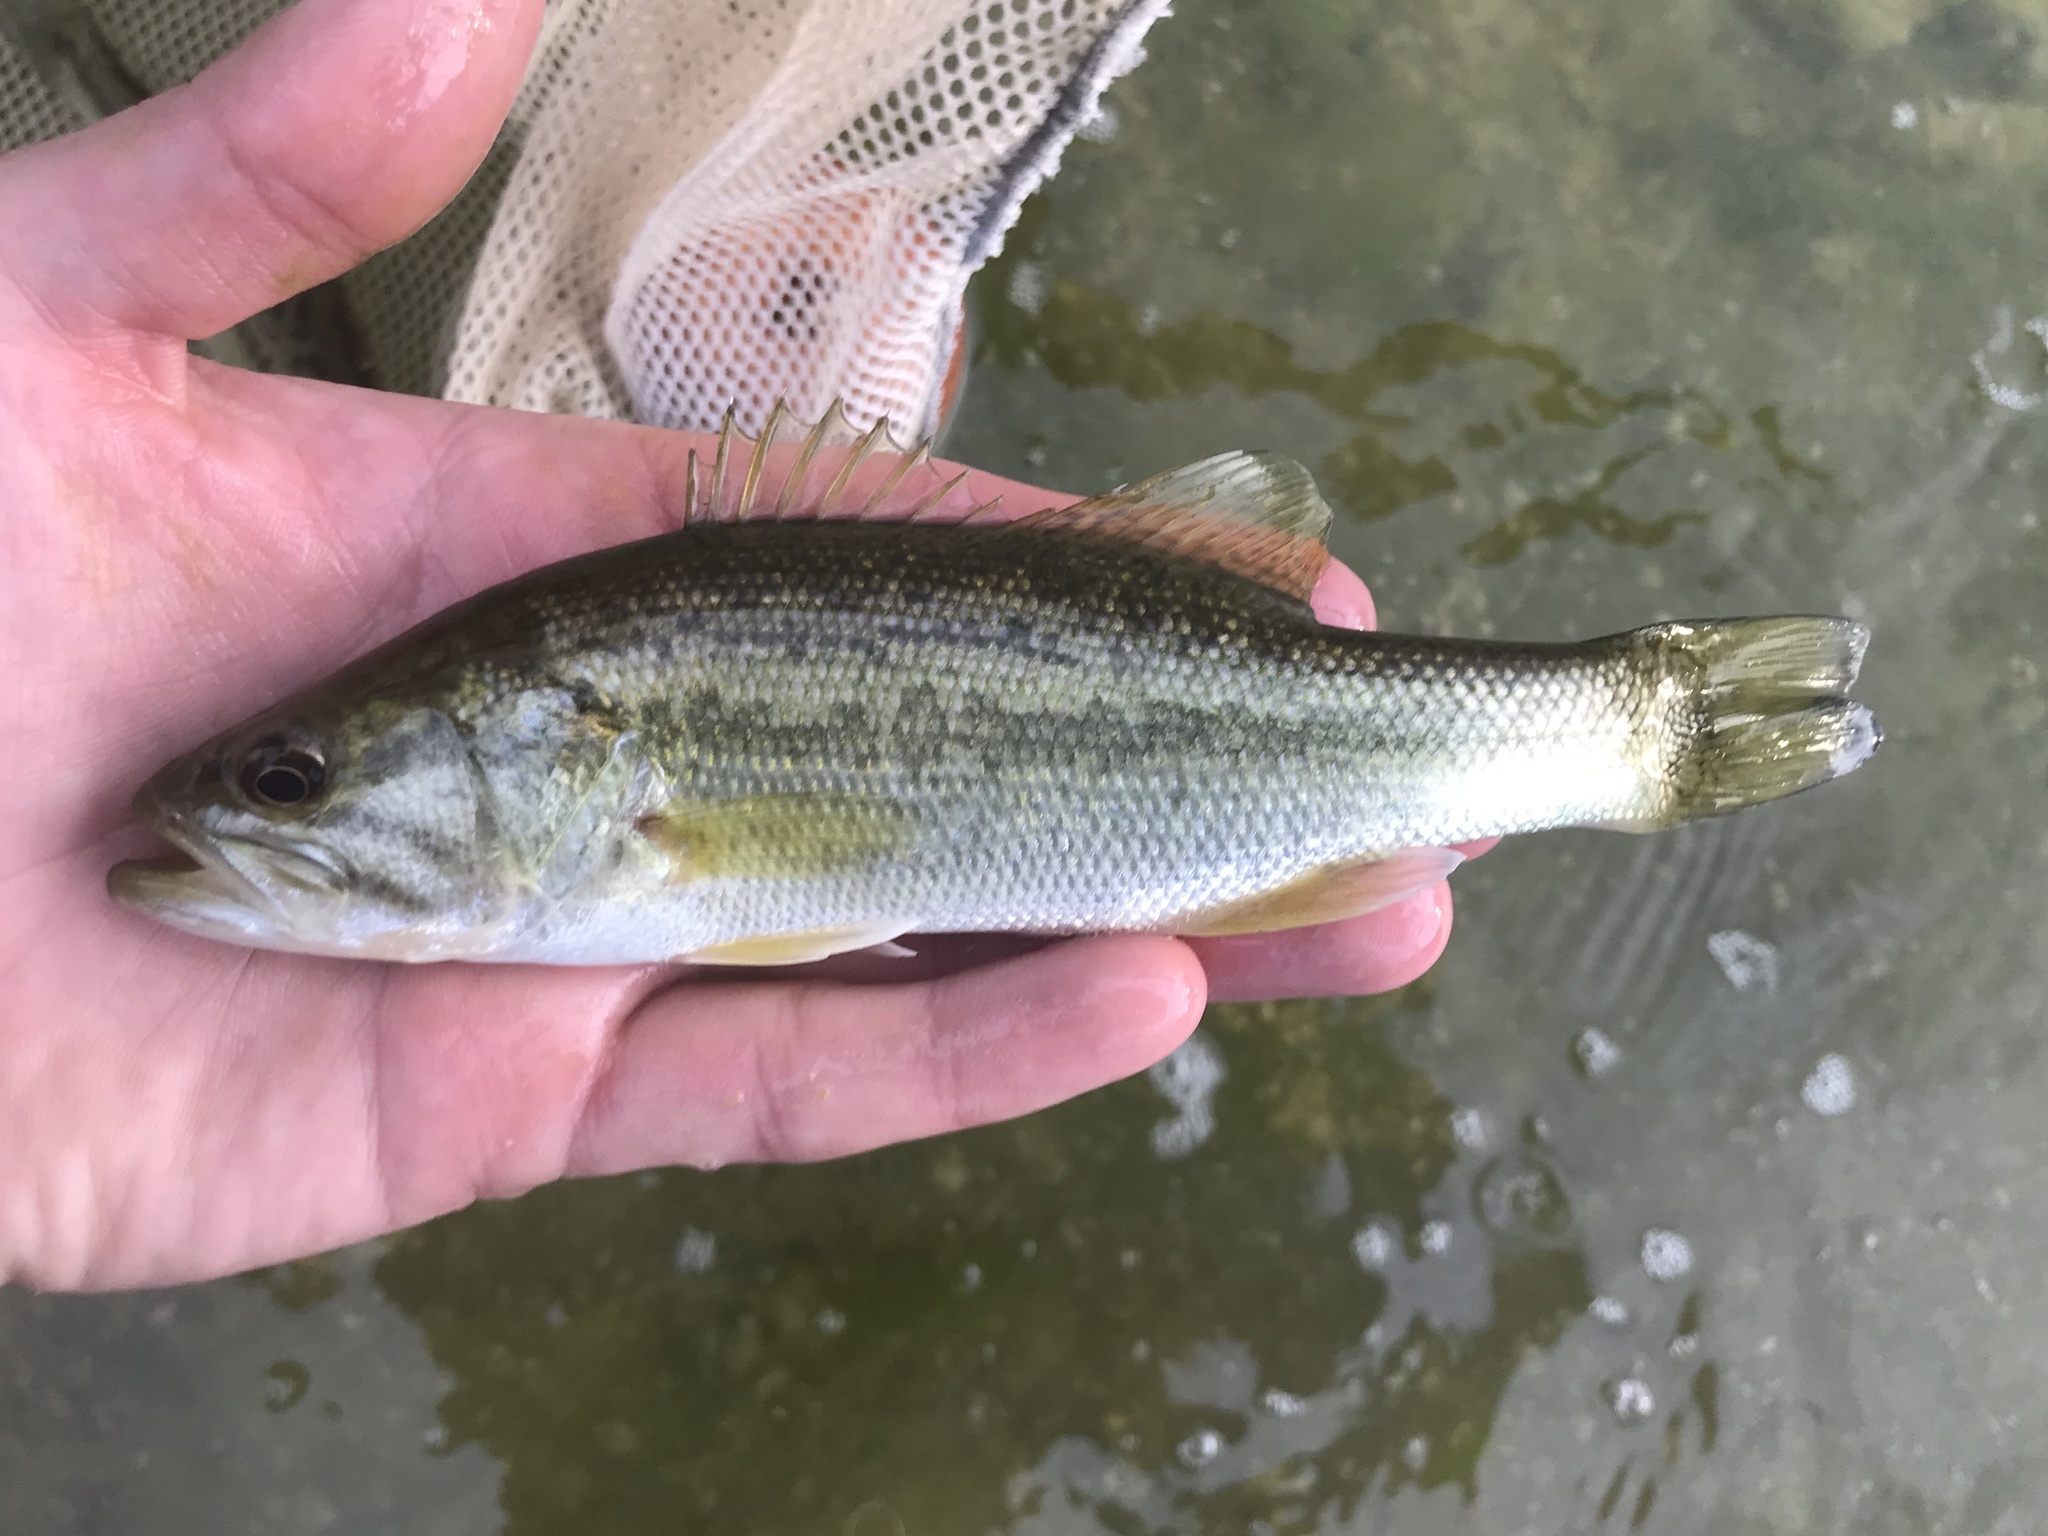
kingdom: Animalia
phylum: Chordata
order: Perciformes
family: Centrarchidae
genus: Micropterus
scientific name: Micropterus
